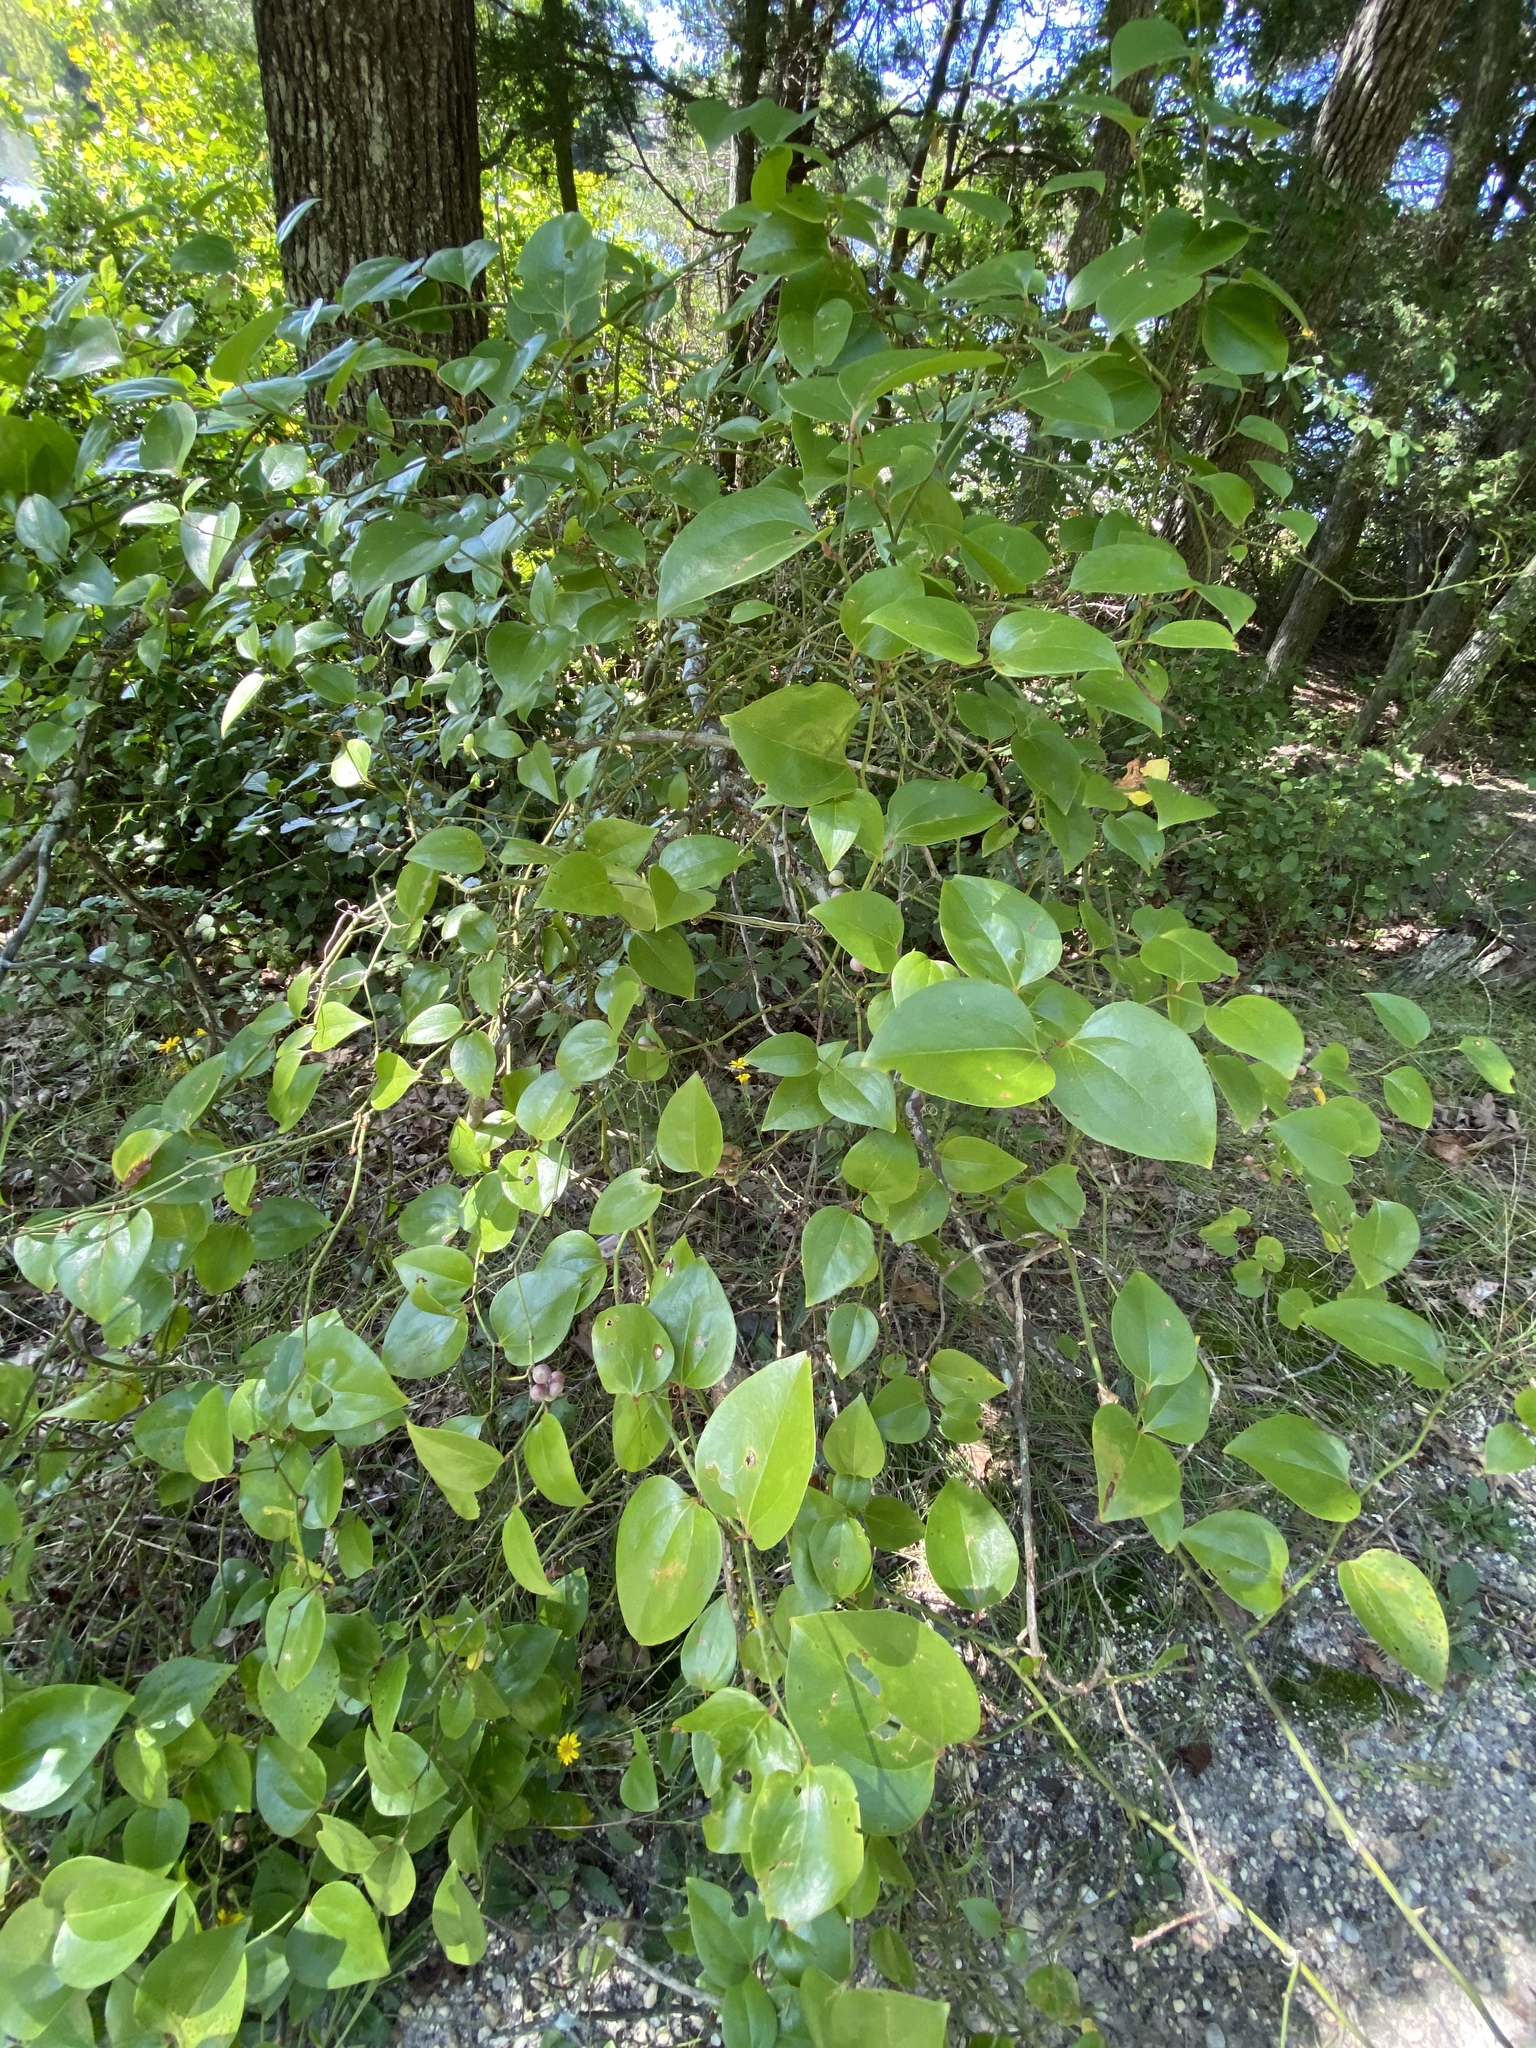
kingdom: Plantae
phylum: Tracheophyta
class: Liliopsida
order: Liliales
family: Smilacaceae
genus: Smilax
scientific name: Smilax rotundifolia
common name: Bullbriar
